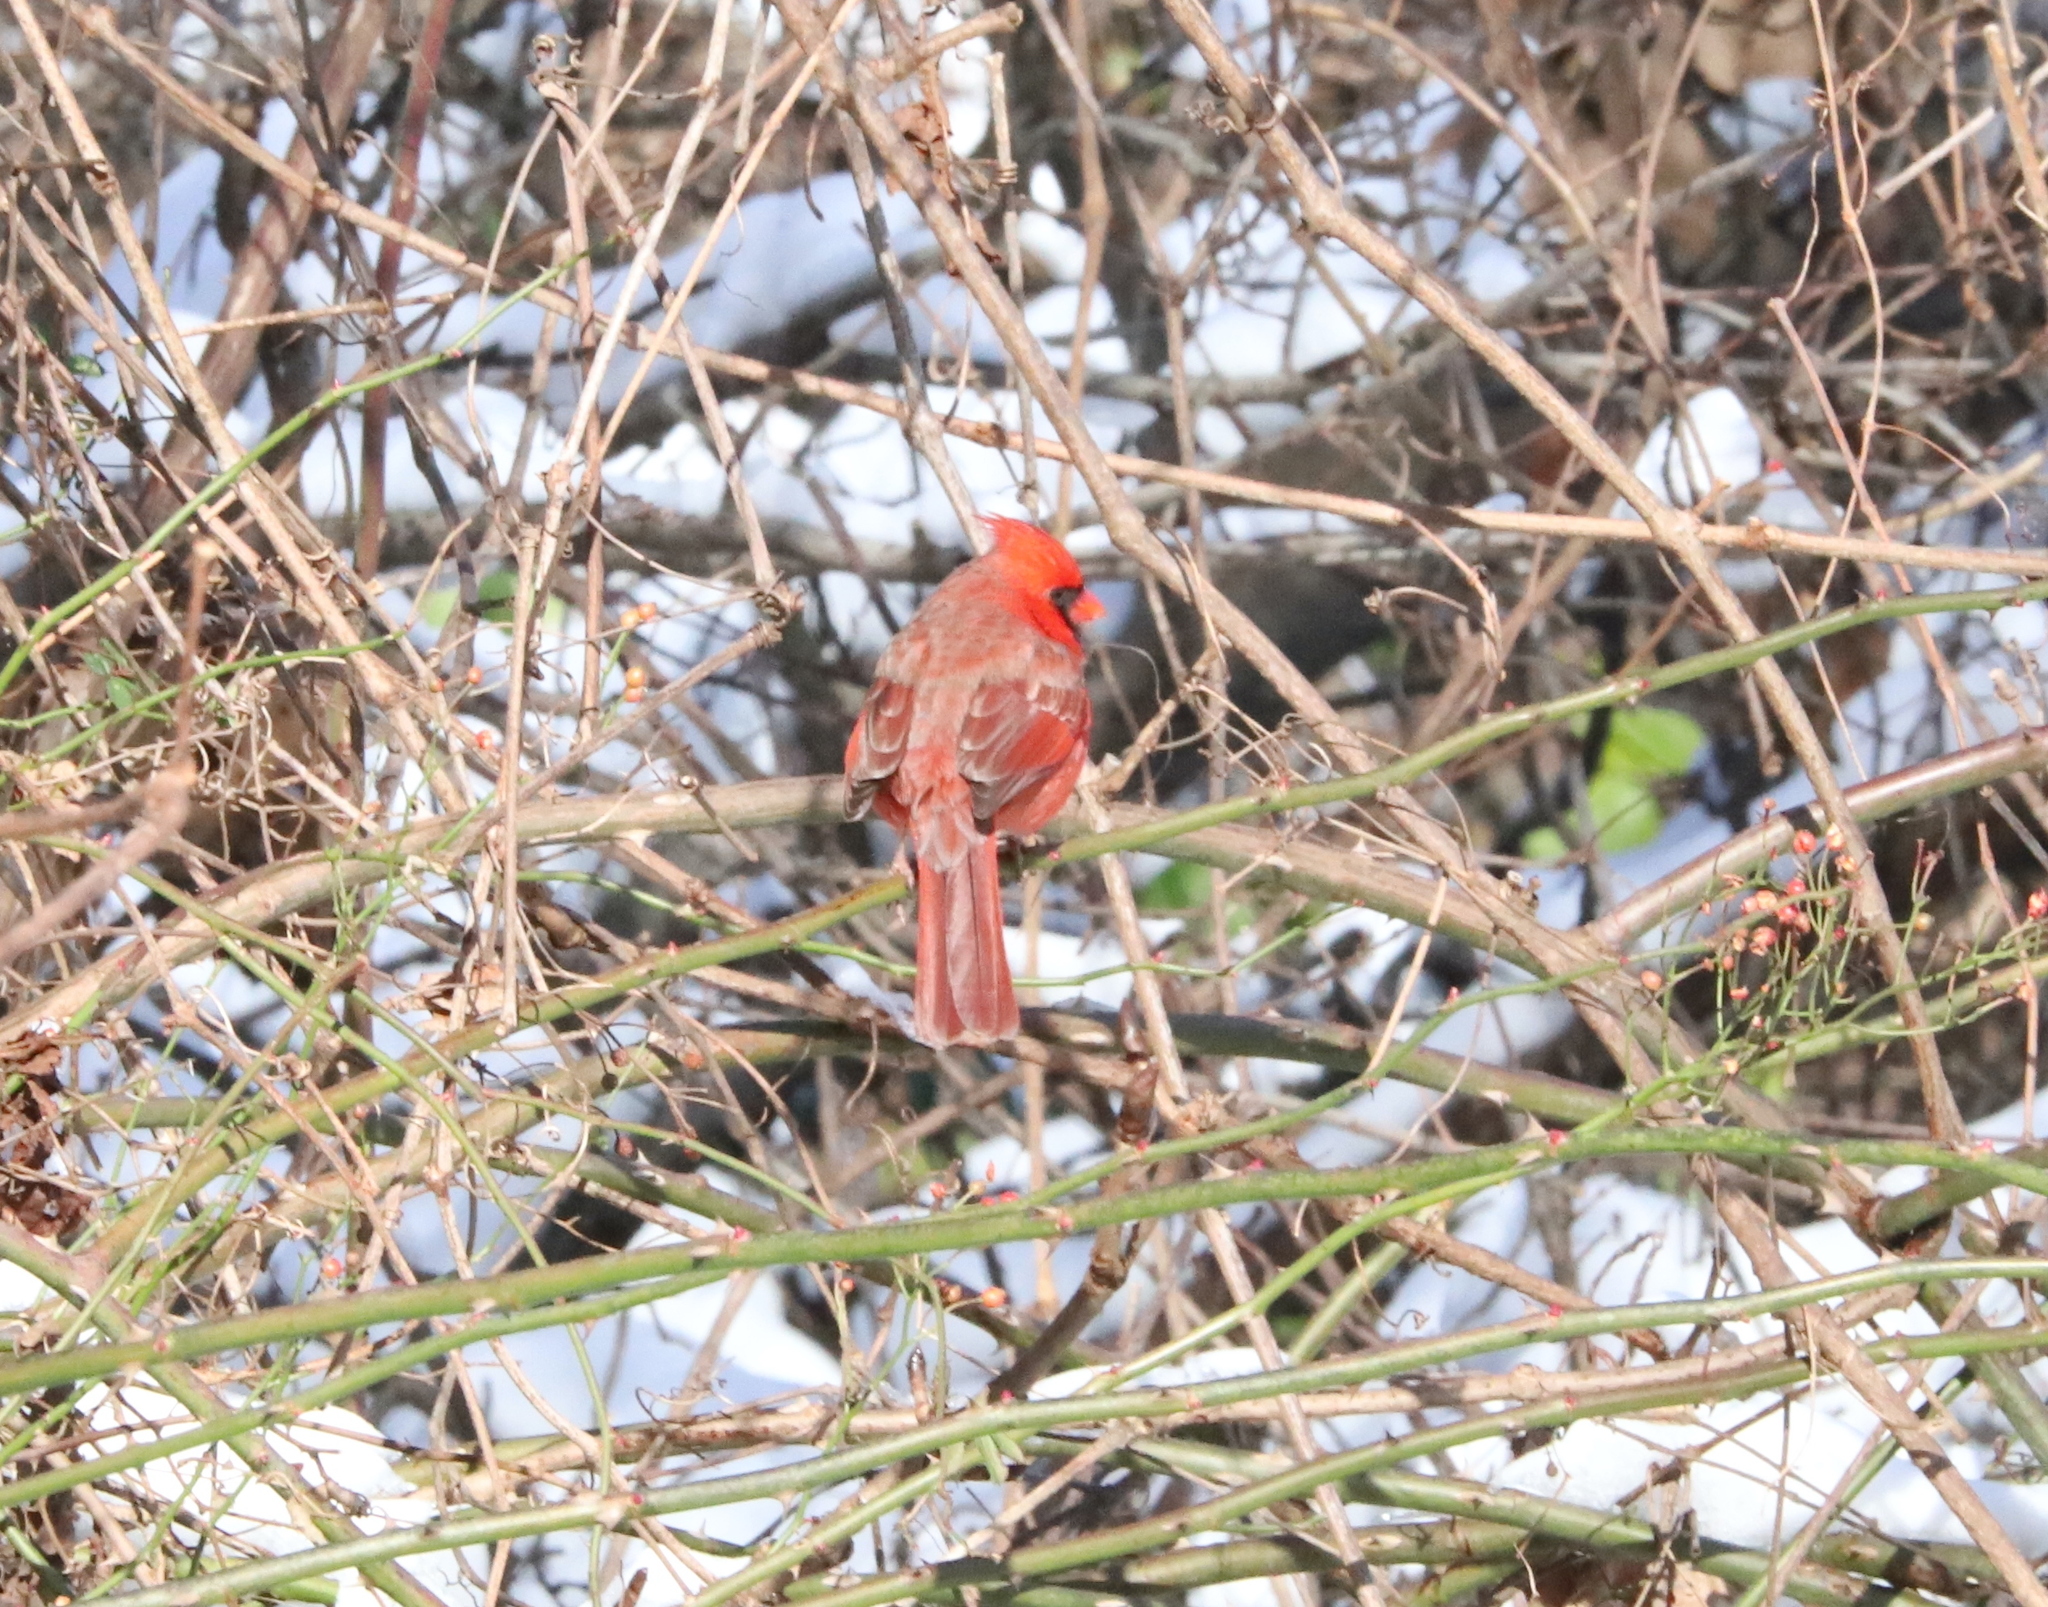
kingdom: Animalia
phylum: Chordata
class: Aves
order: Passeriformes
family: Cardinalidae
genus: Cardinalis
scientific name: Cardinalis cardinalis
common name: Northern cardinal
